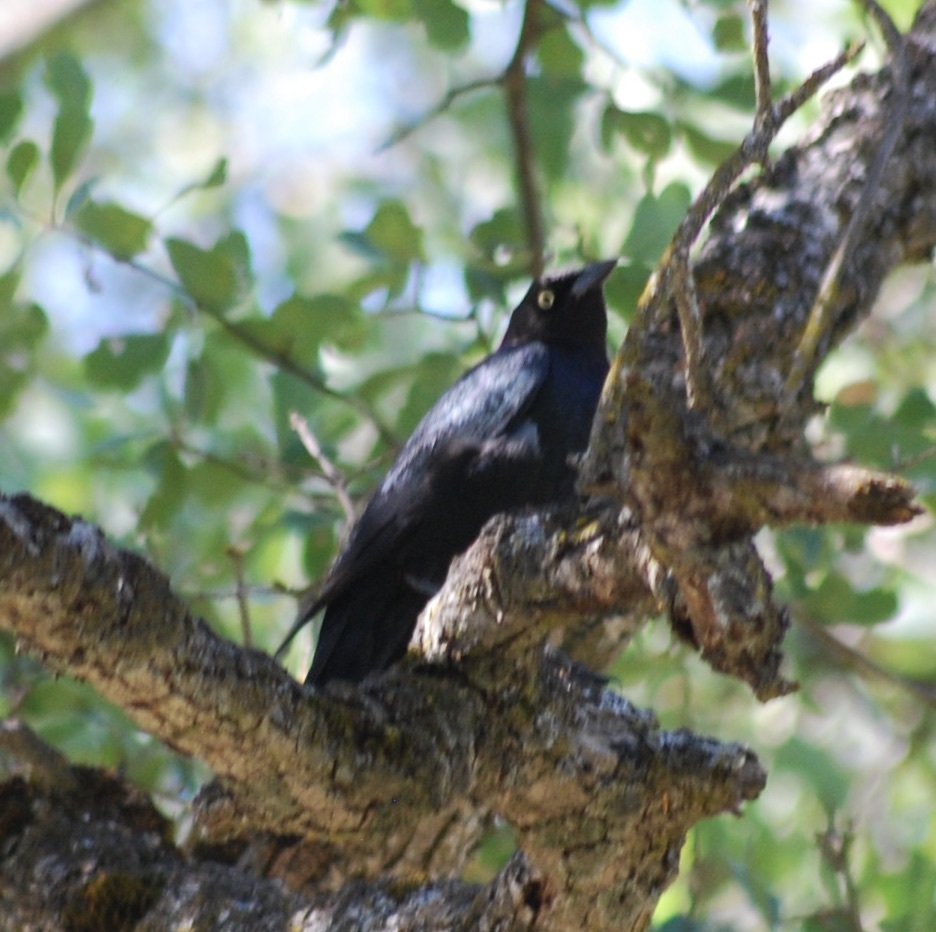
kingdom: Animalia
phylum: Chordata
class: Aves
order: Passeriformes
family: Icteridae
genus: Euphagus
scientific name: Euphagus cyanocephalus
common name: Brewer's blackbird
